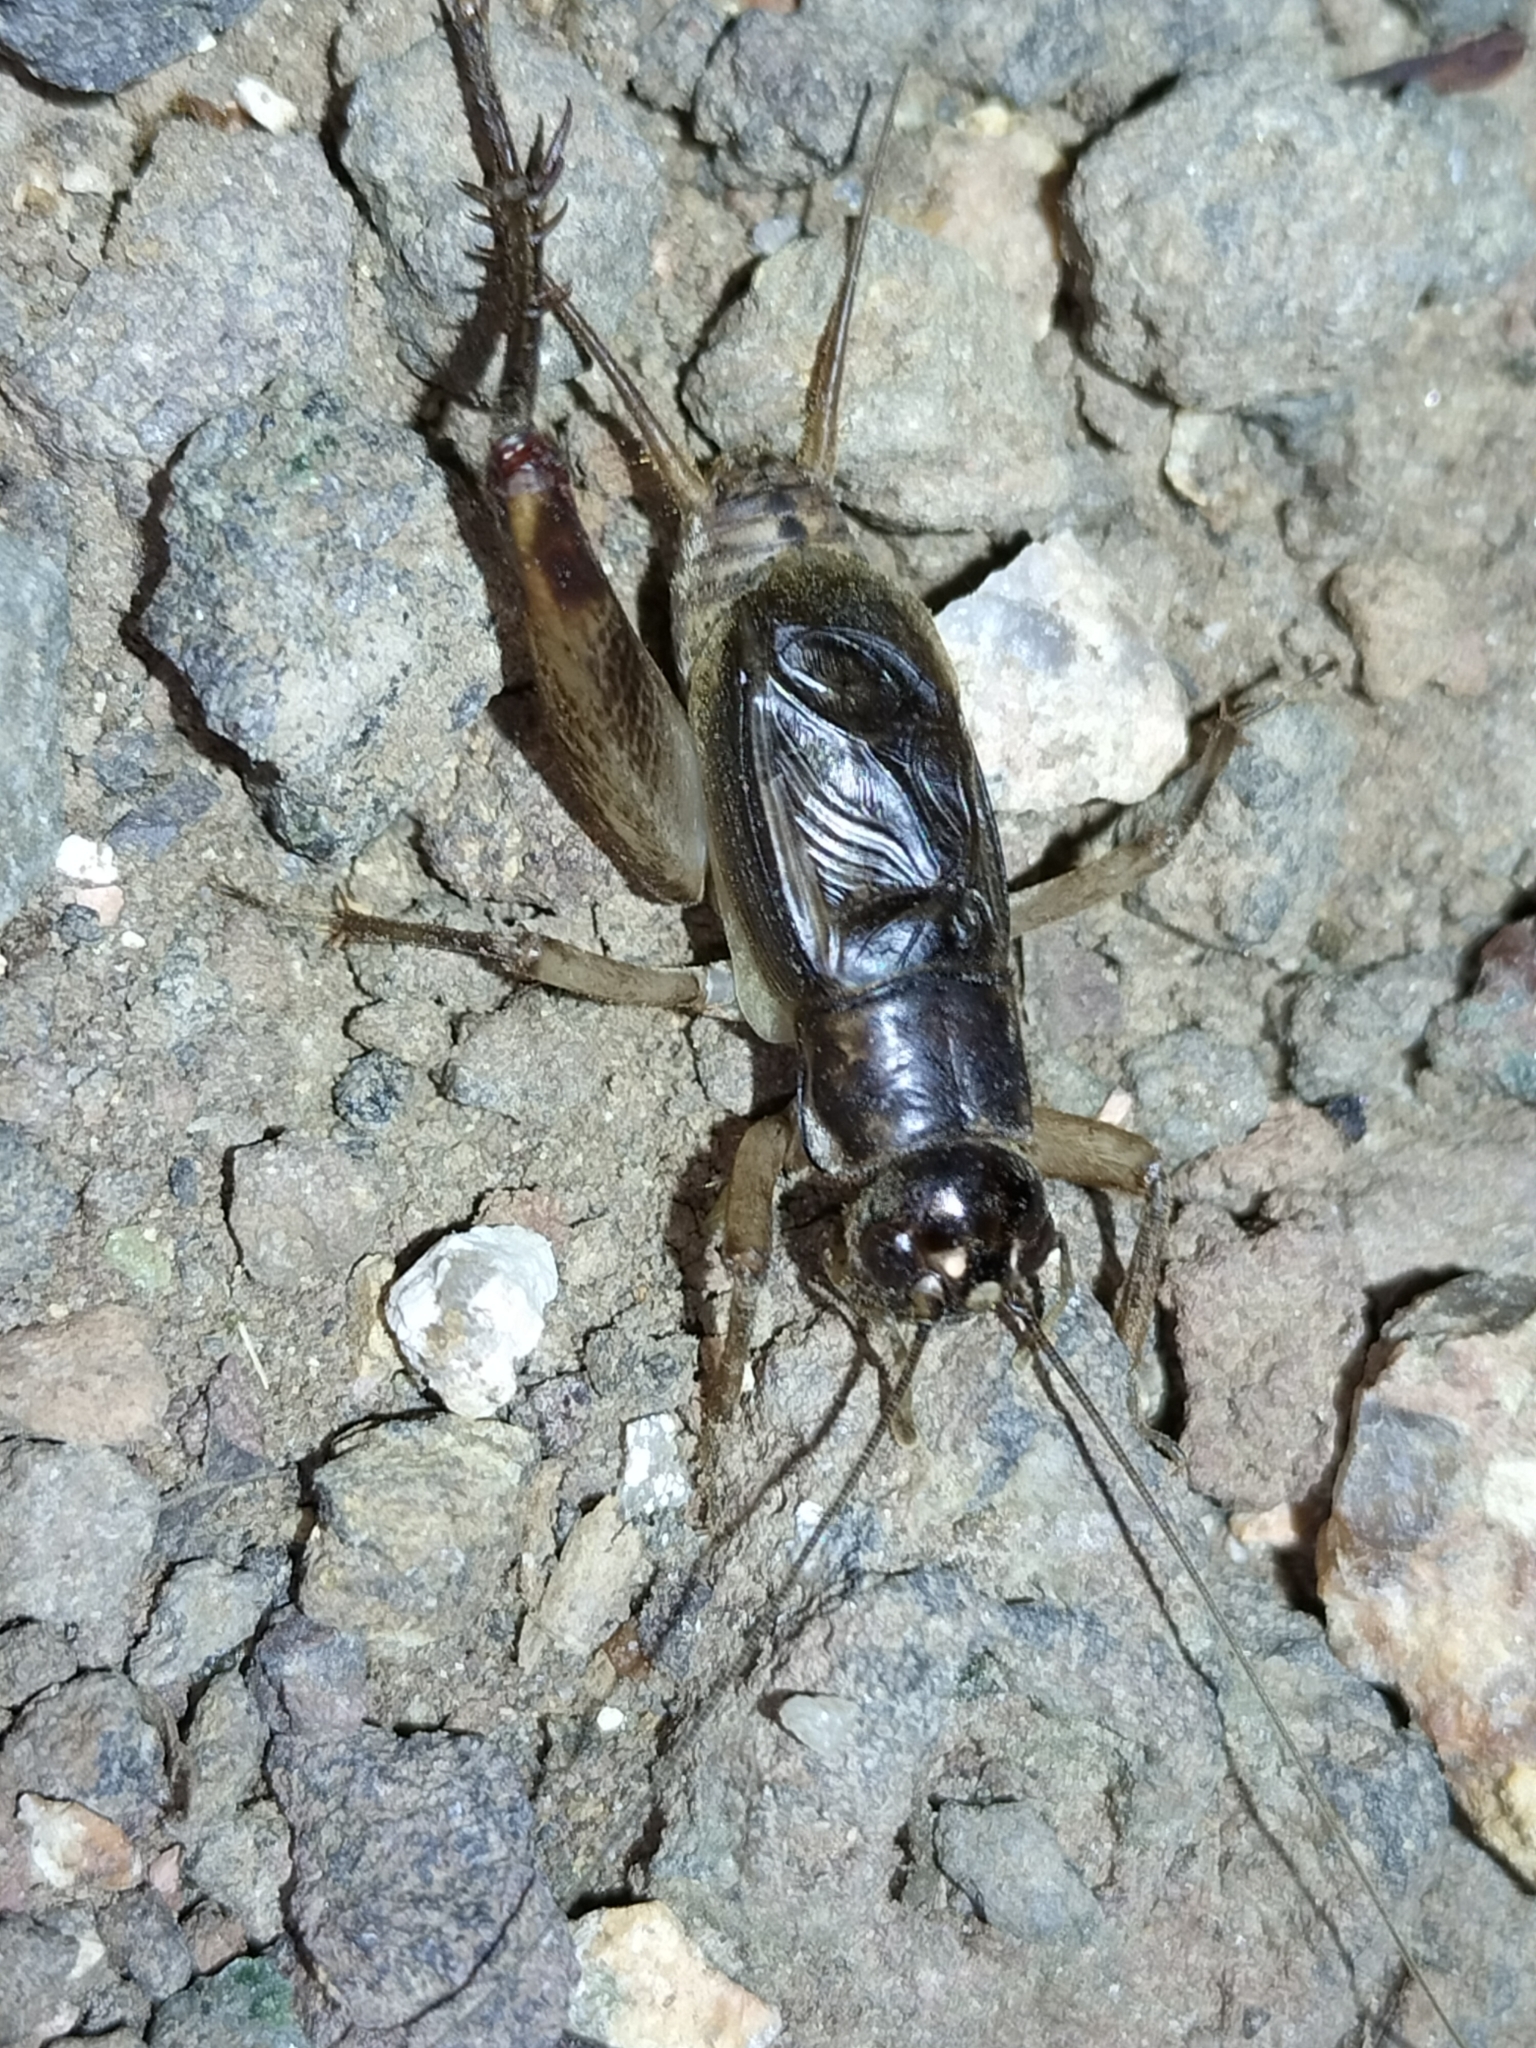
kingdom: Animalia
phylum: Arthropoda
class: Insecta
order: Orthoptera
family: Gryllidae
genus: Daintria
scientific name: Daintria australicus
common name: Daintree spraddler
